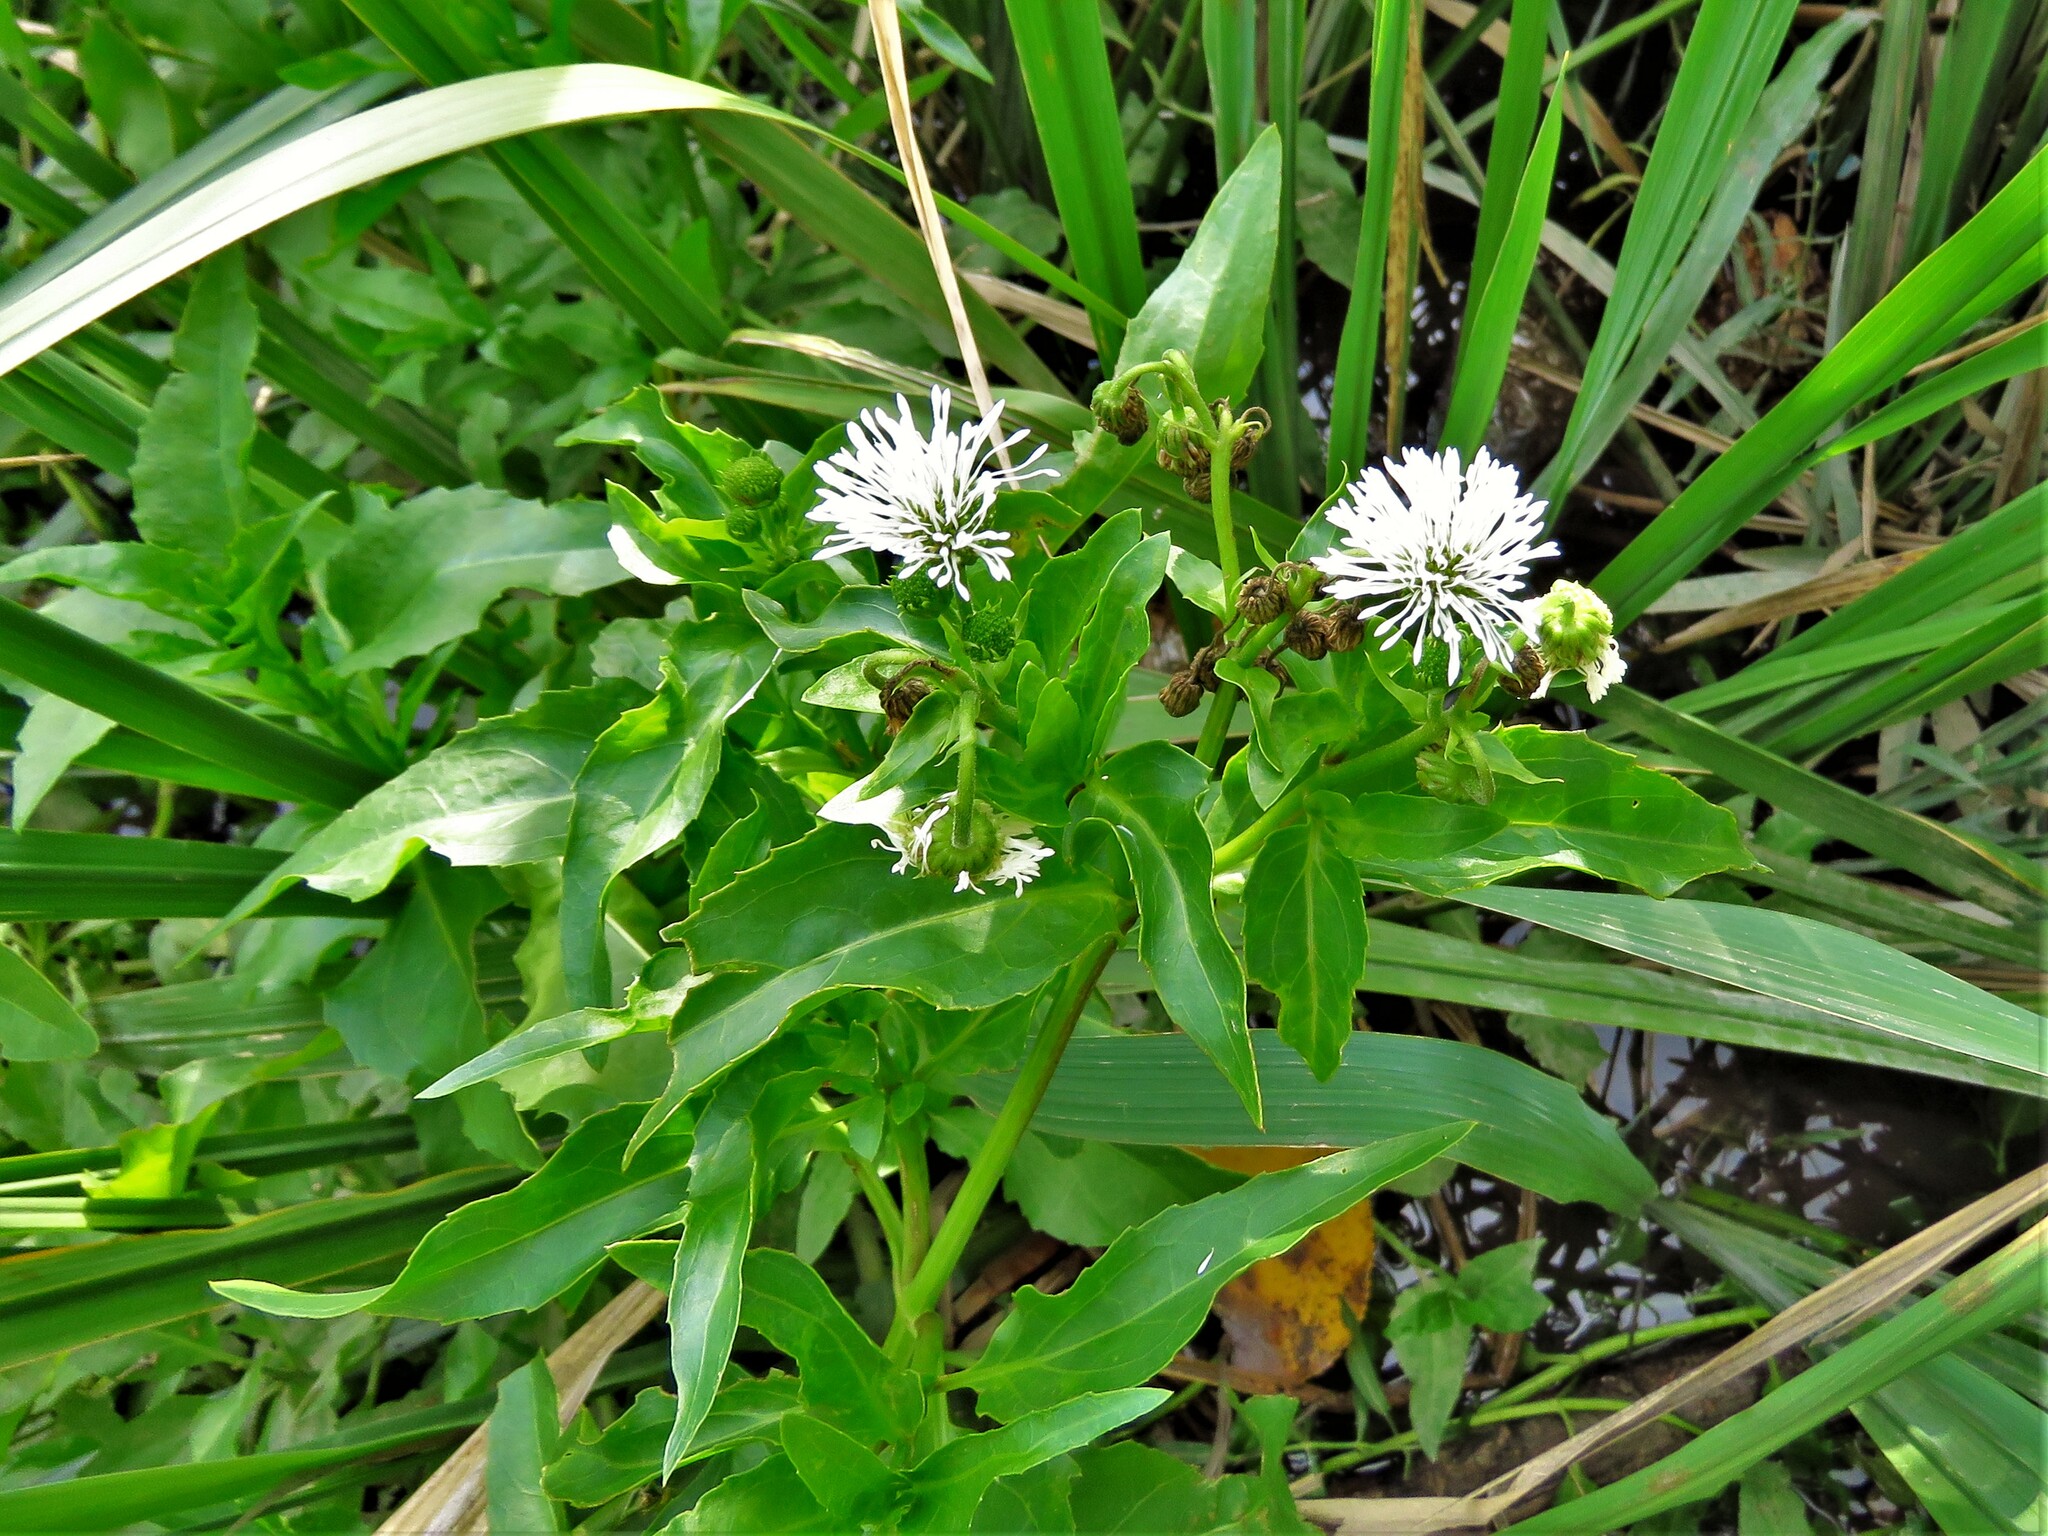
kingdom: Plantae
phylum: Tracheophyta
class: Magnoliopsida
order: Asterales
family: Asteraceae
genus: Gymnocoronis
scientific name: Gymnocoronis spilanthoides
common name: Senegal teaplant
